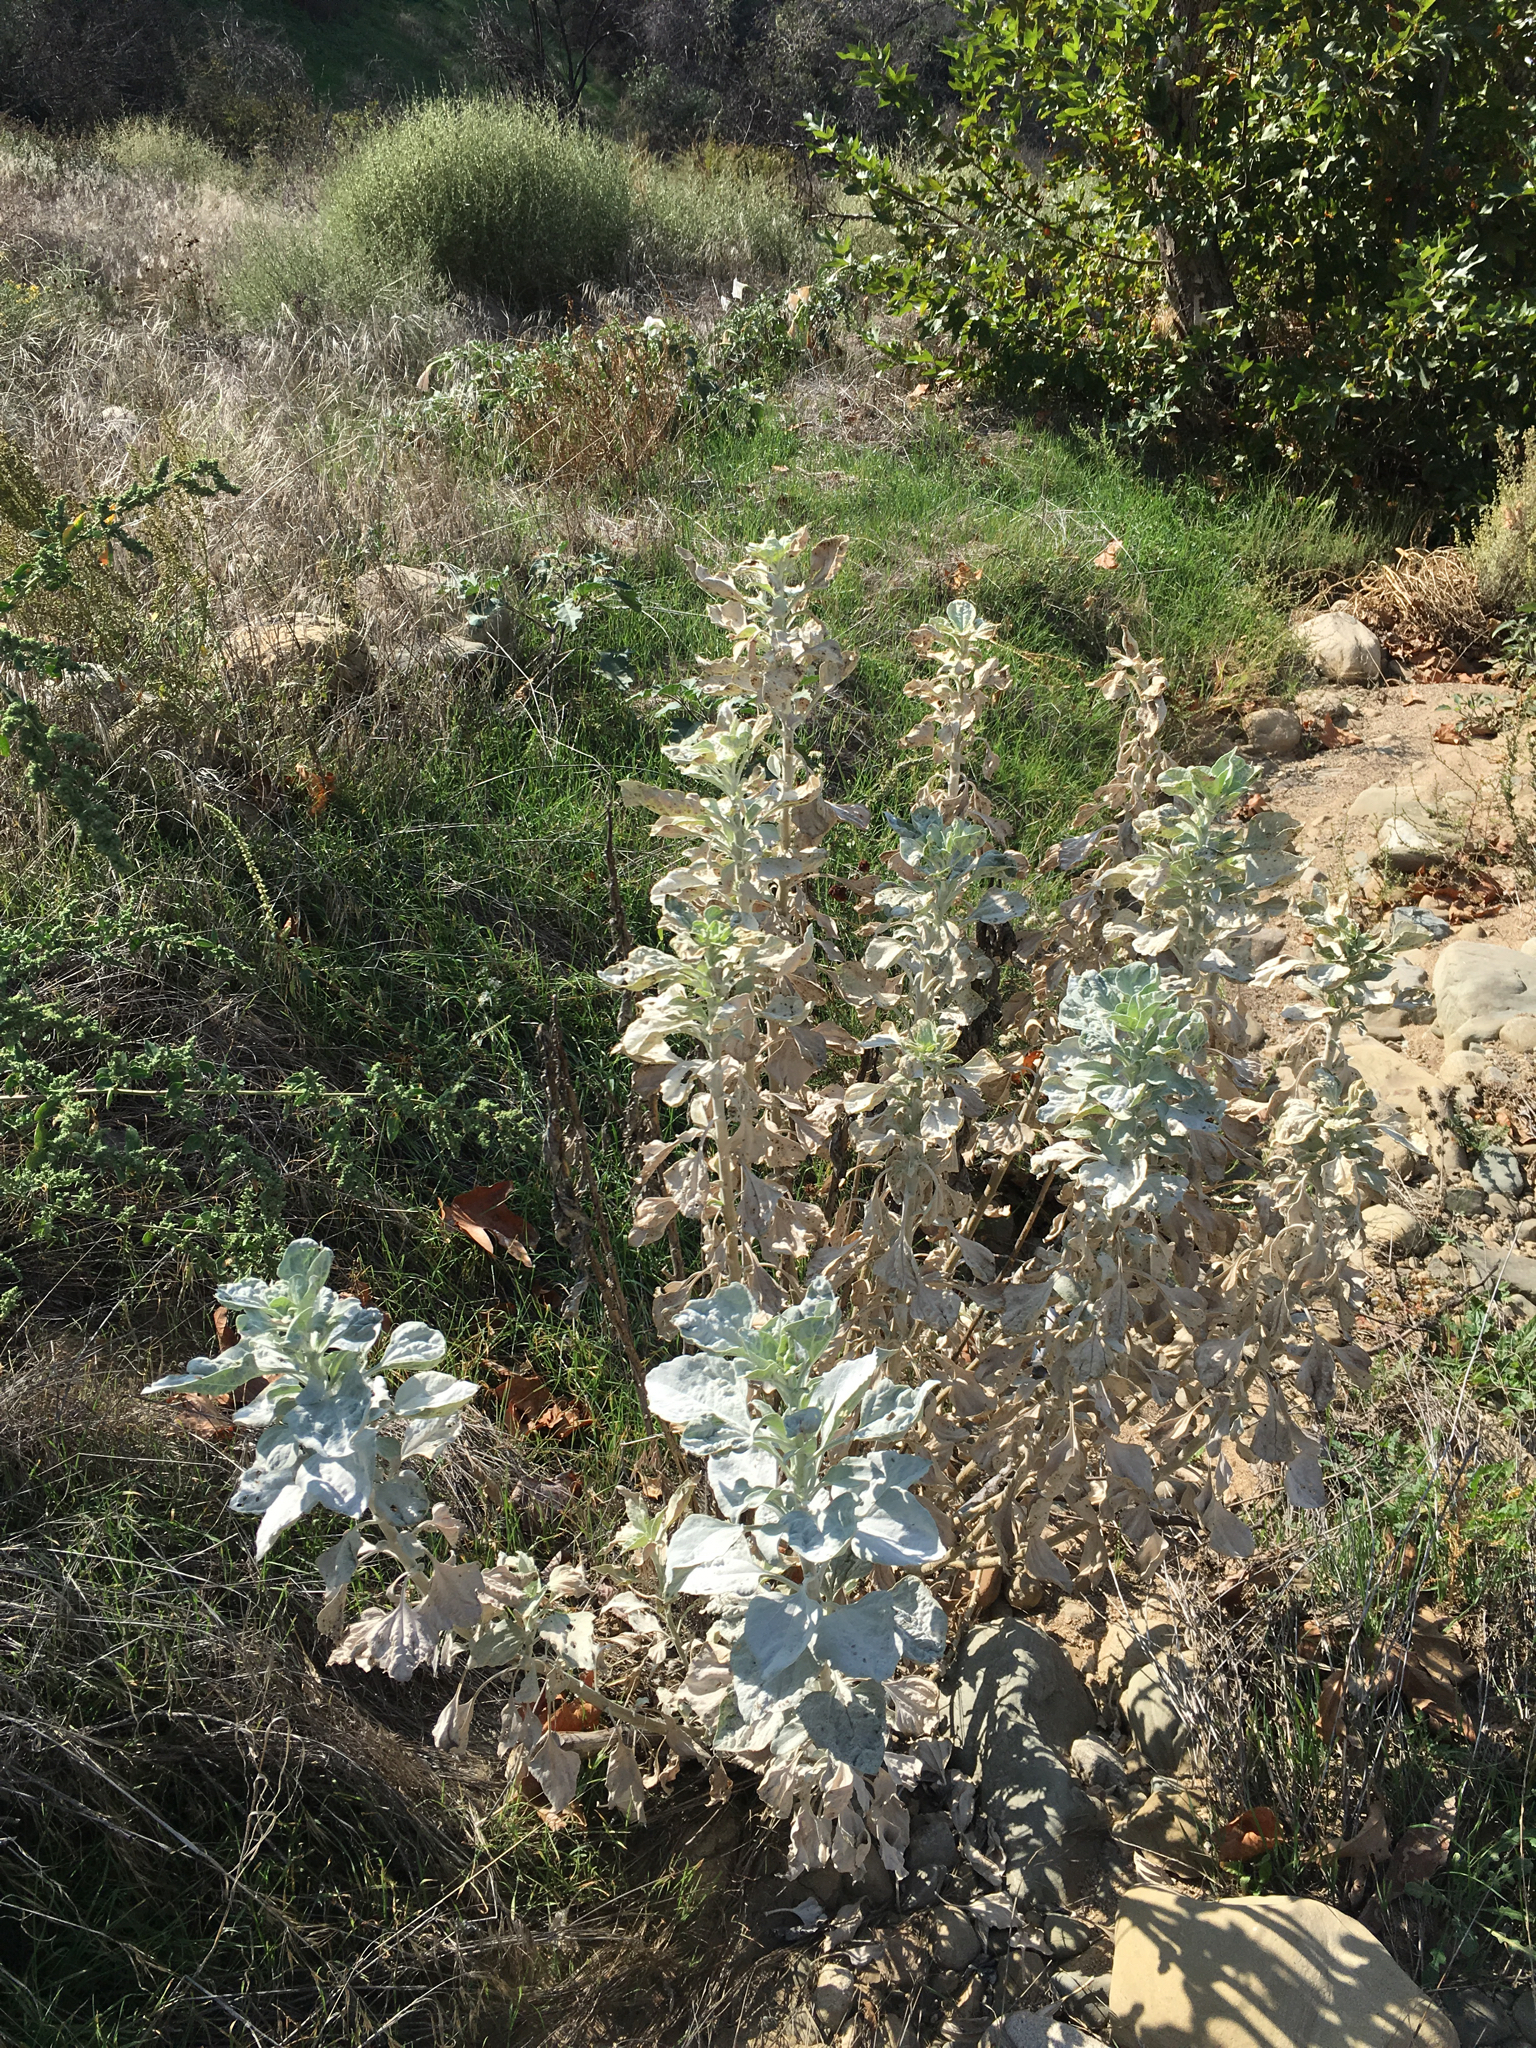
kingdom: Plantae
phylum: Tracheophyta
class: Magnoliopsida
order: Asterales
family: Asteraceae
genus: Encelia
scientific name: Encelia farinosa
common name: Brittlebush
